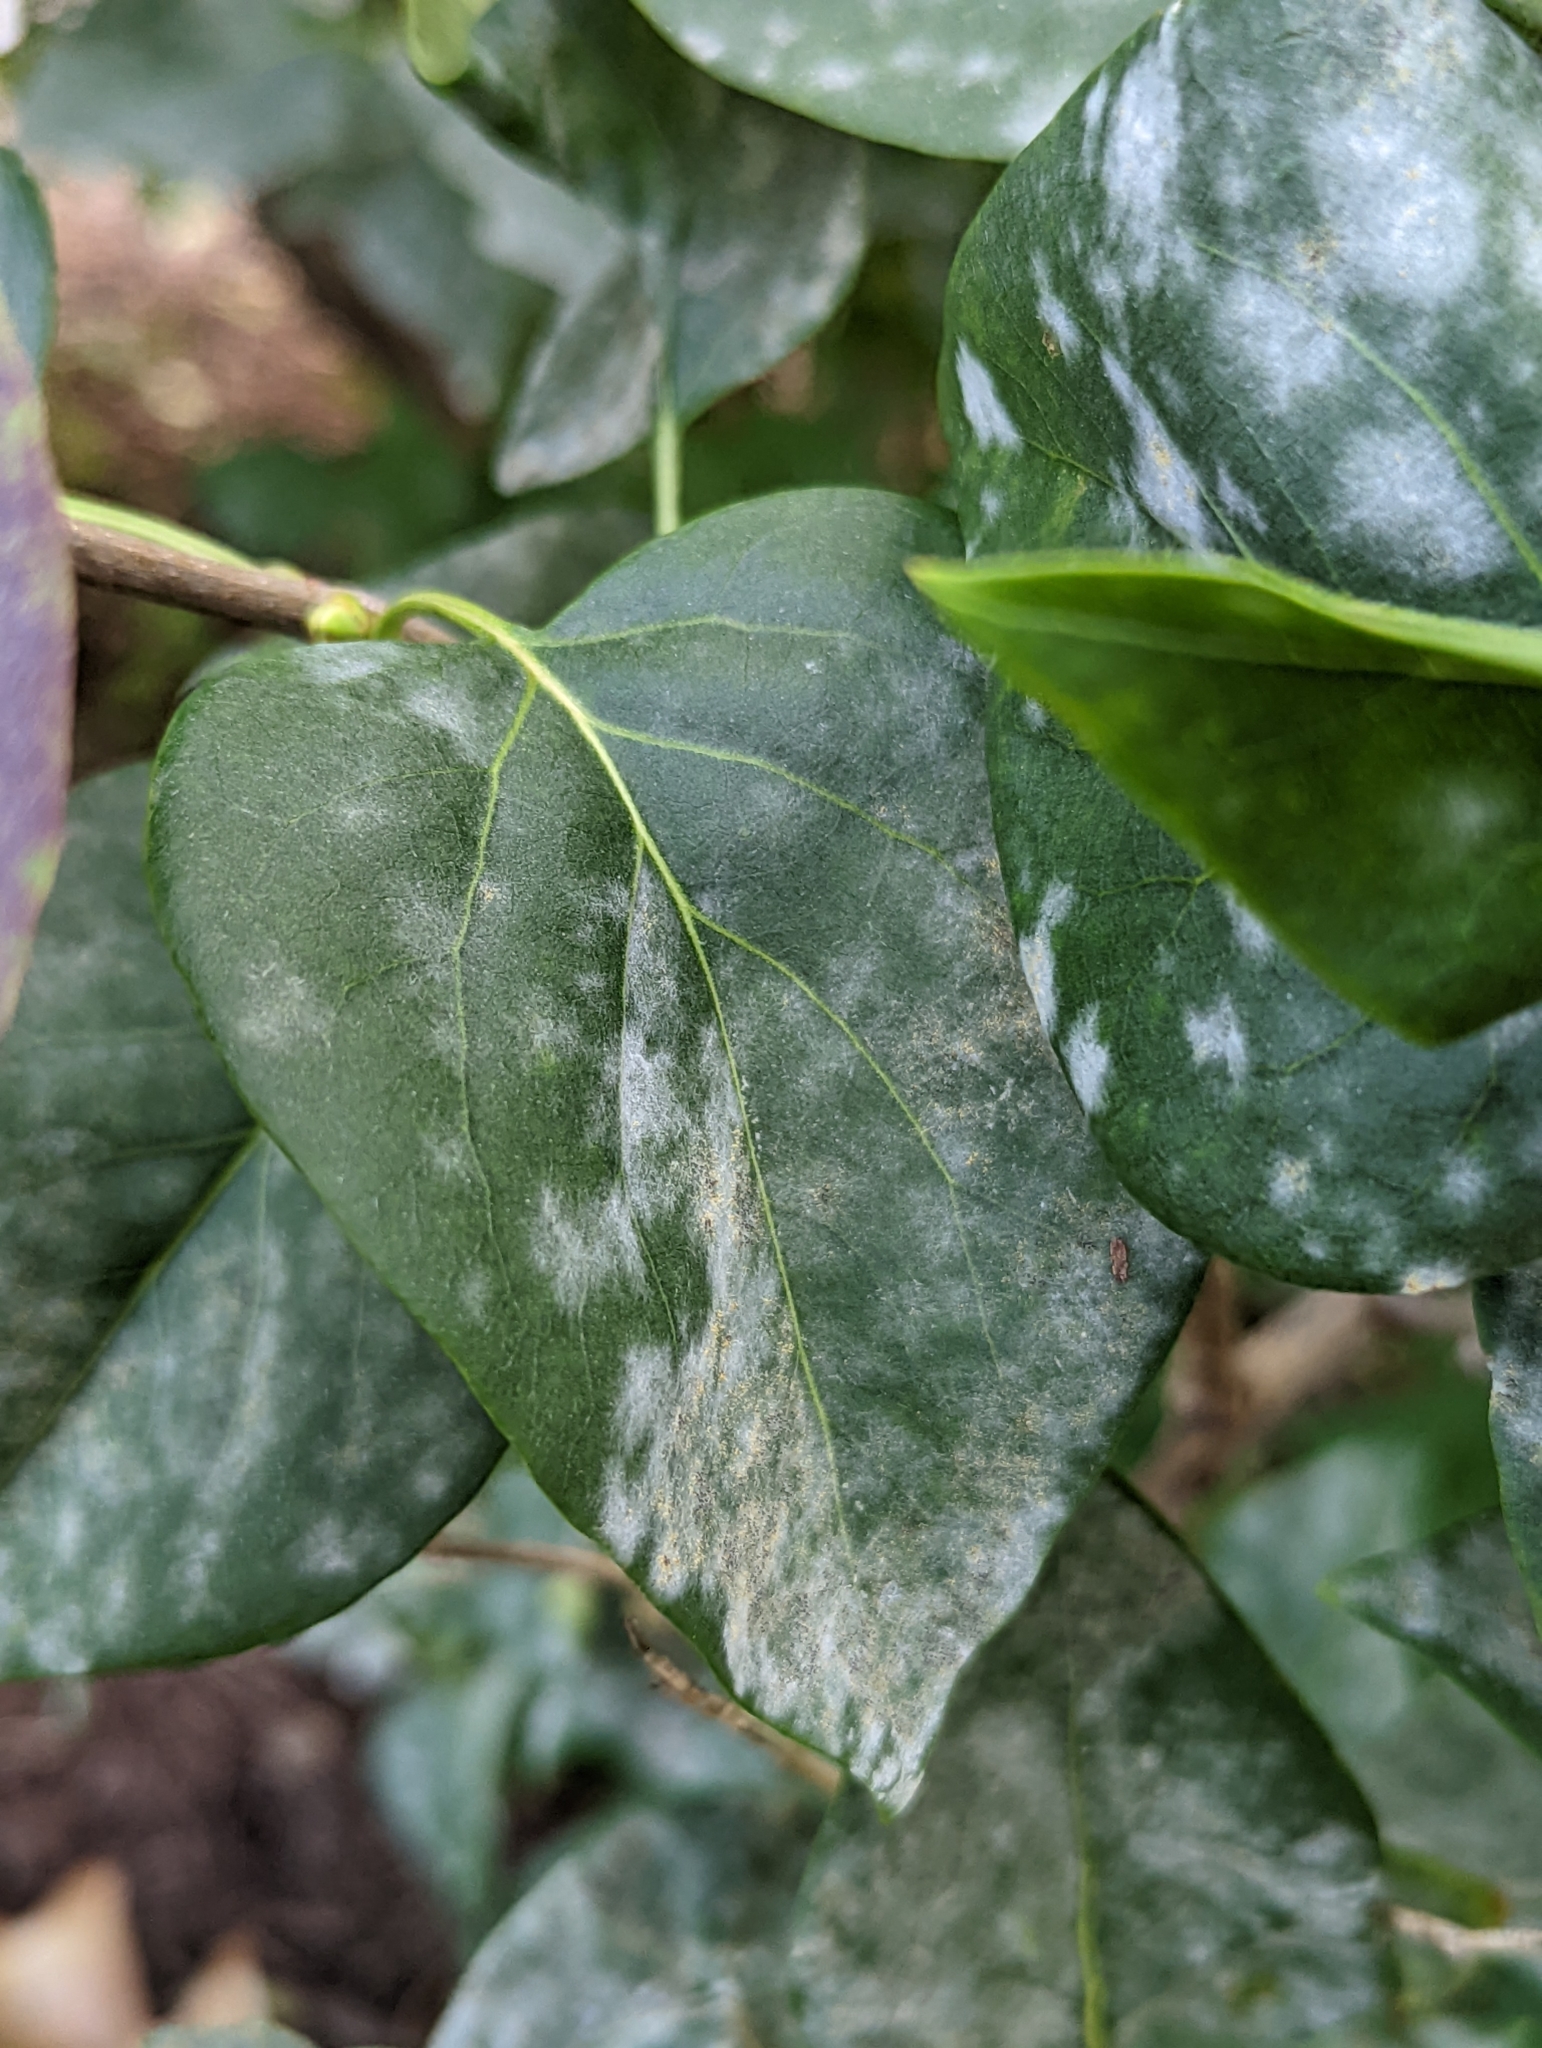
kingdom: Fungi
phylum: Ascomycota
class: Leotiomycetes
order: Helotiales
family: Erysiphaceae
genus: Erysiphe
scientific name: Erysiphe syringae
